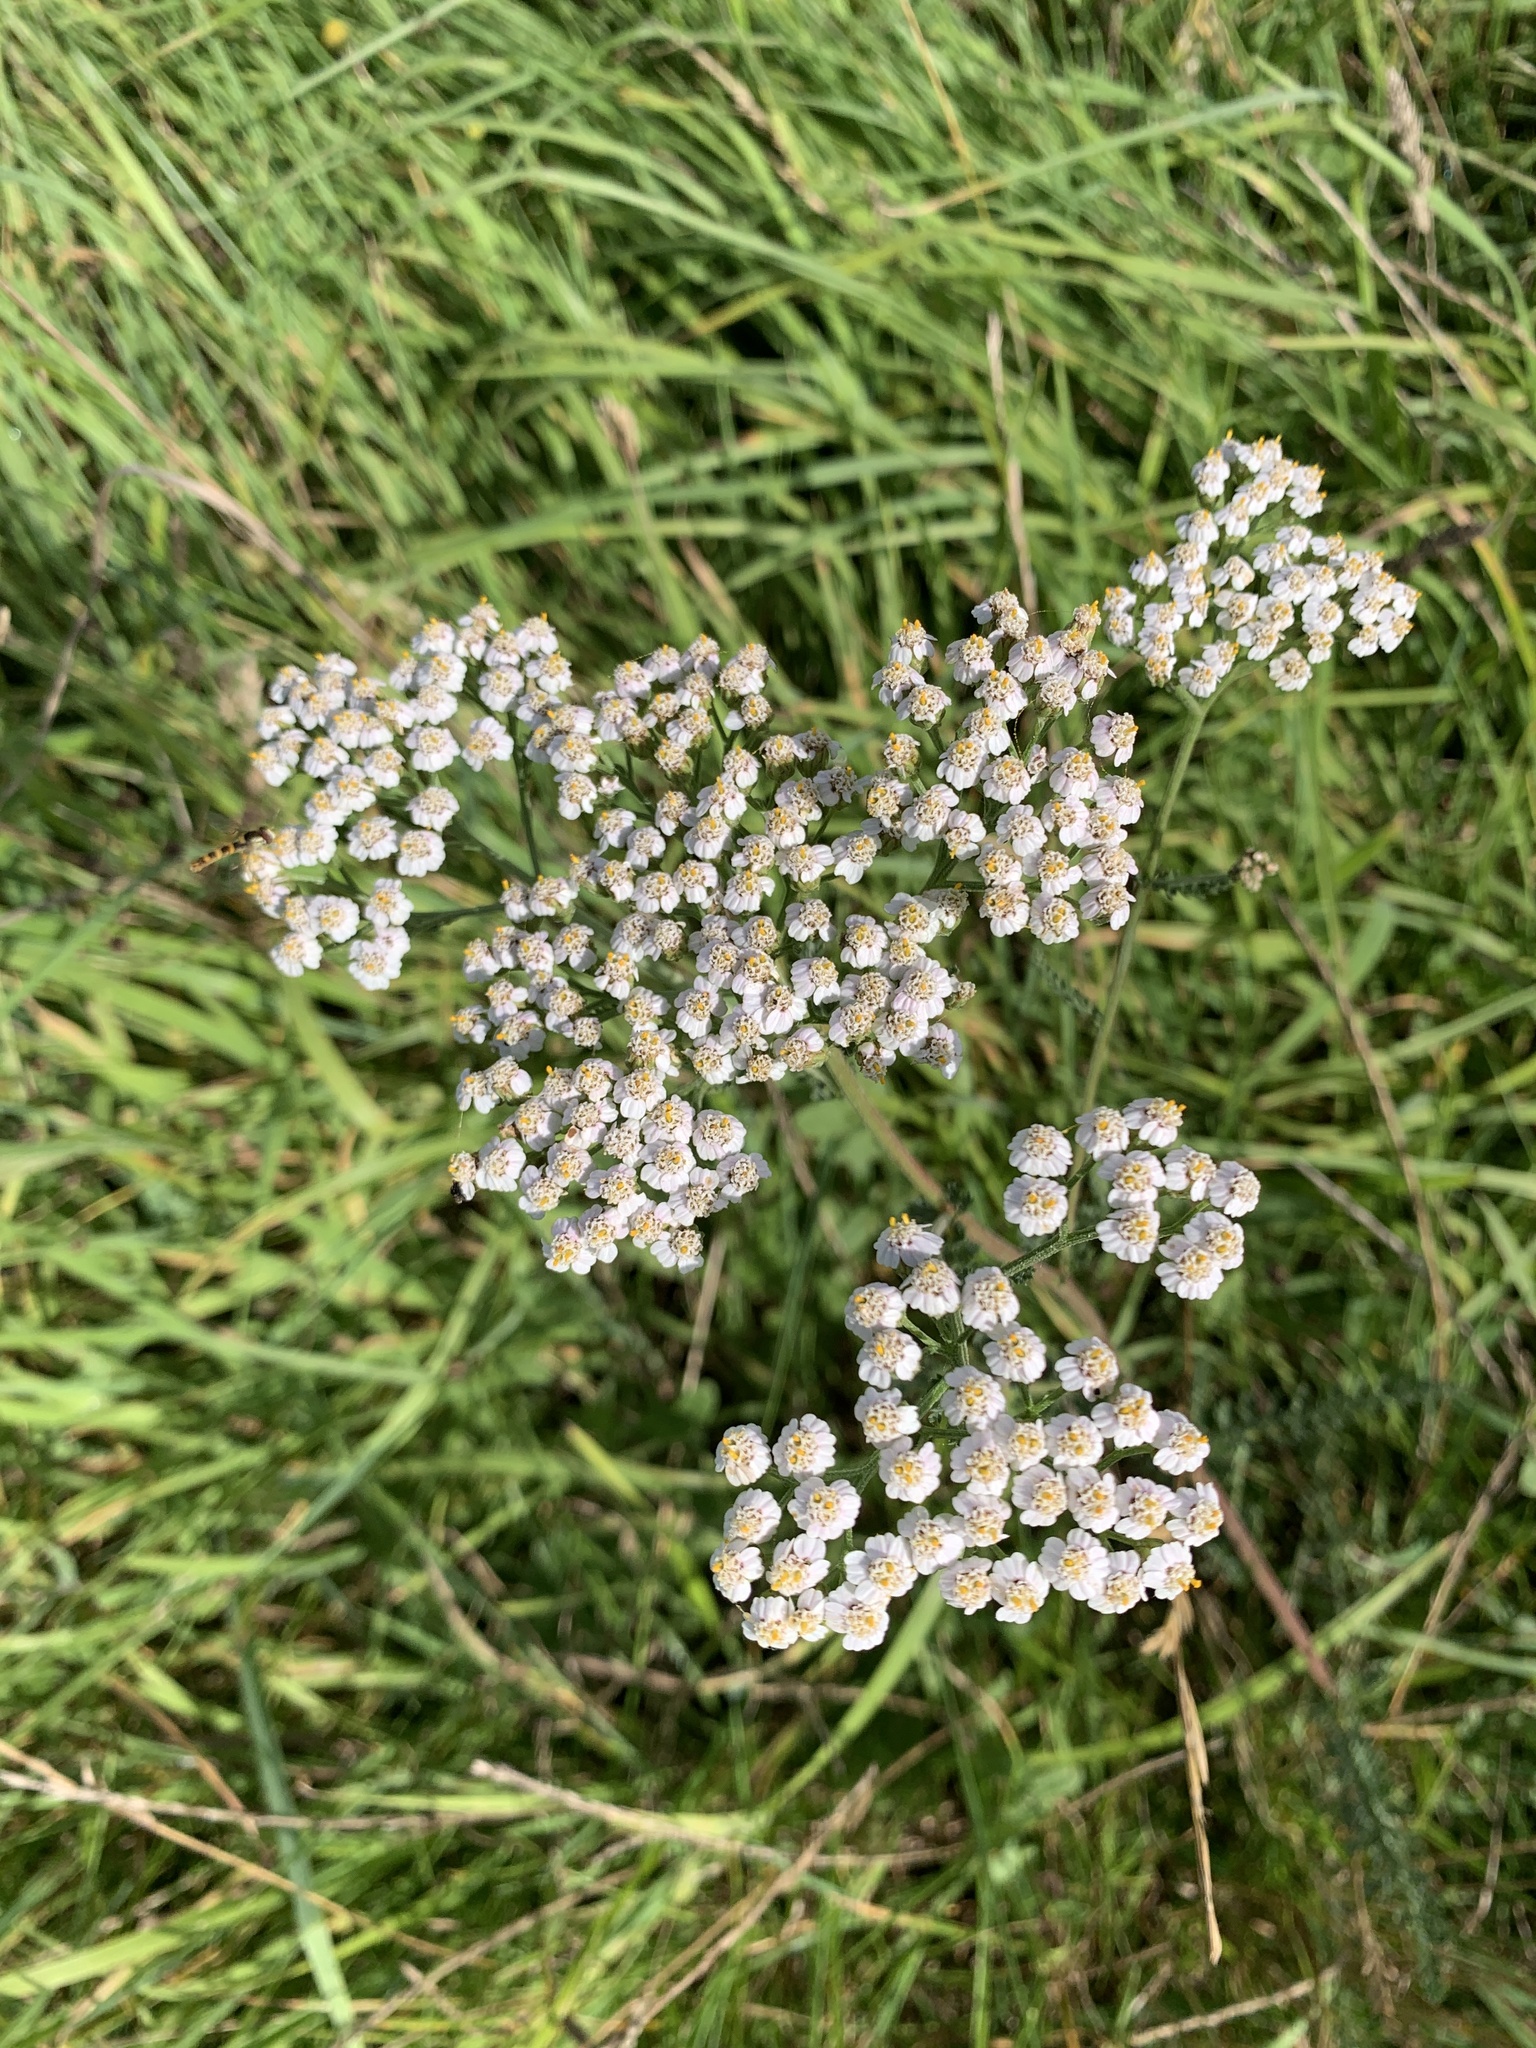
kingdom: Plantae
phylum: Tracheophyta
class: Magnoliopsida
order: Asterales
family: Asteraceae
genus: Achillea
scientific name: Achillea millefolium
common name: Yarrow
